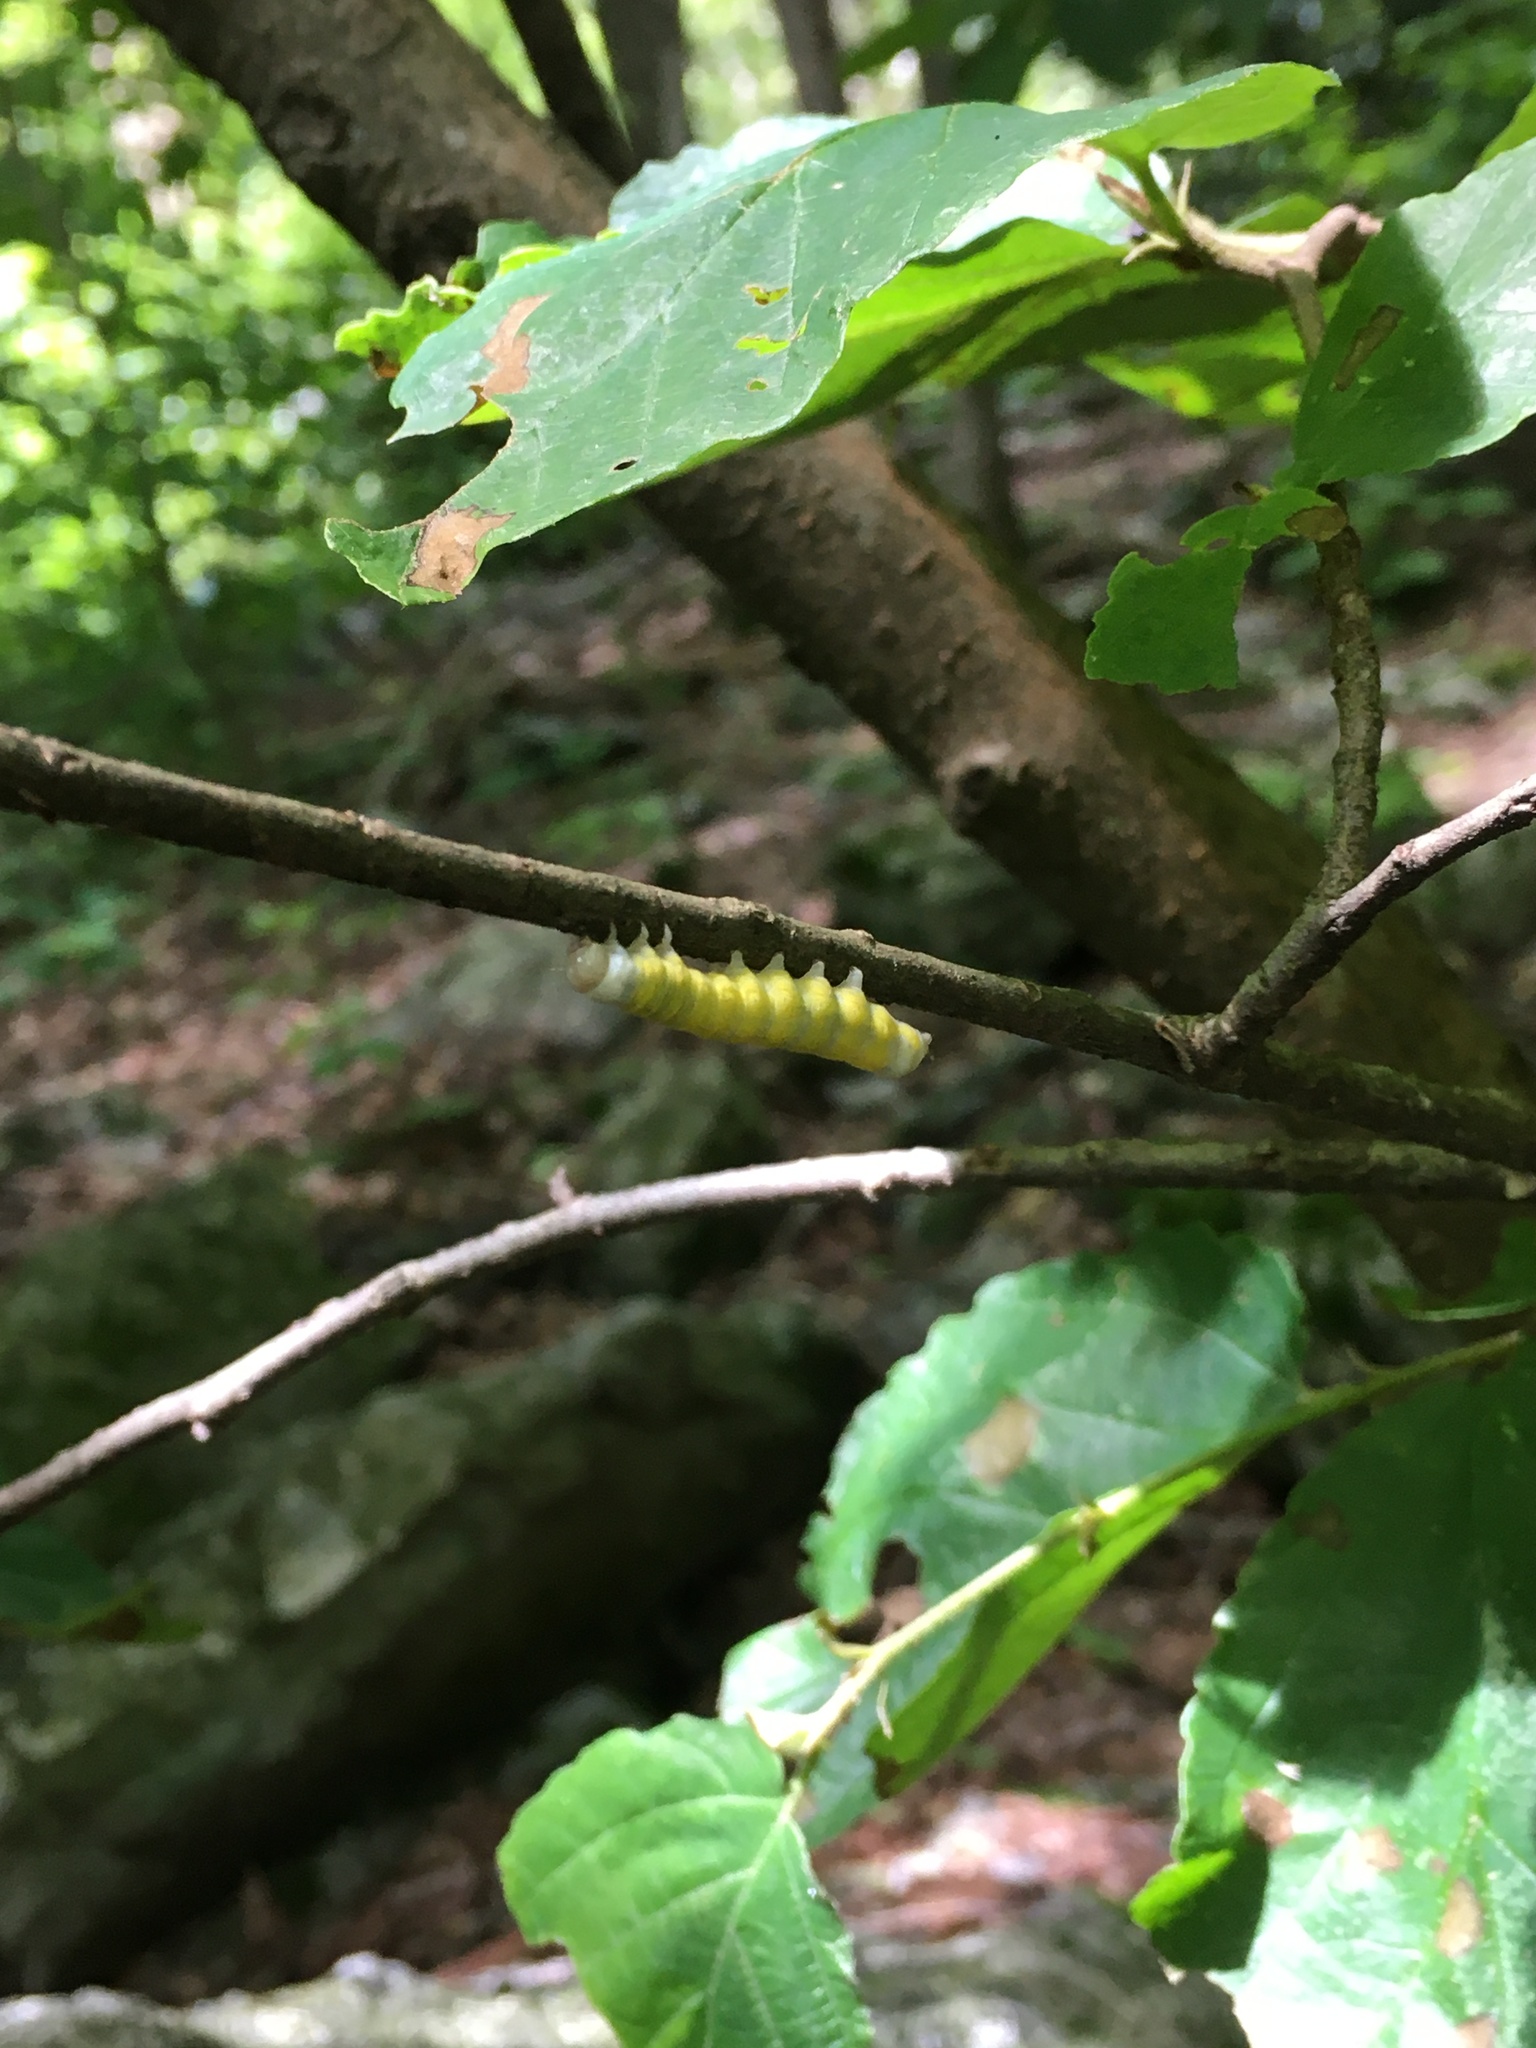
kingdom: Animalia
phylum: Arthropoda
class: Insecta
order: Lepidoptera
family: Noctuidae
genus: Pyreferra
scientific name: Pyreferra
